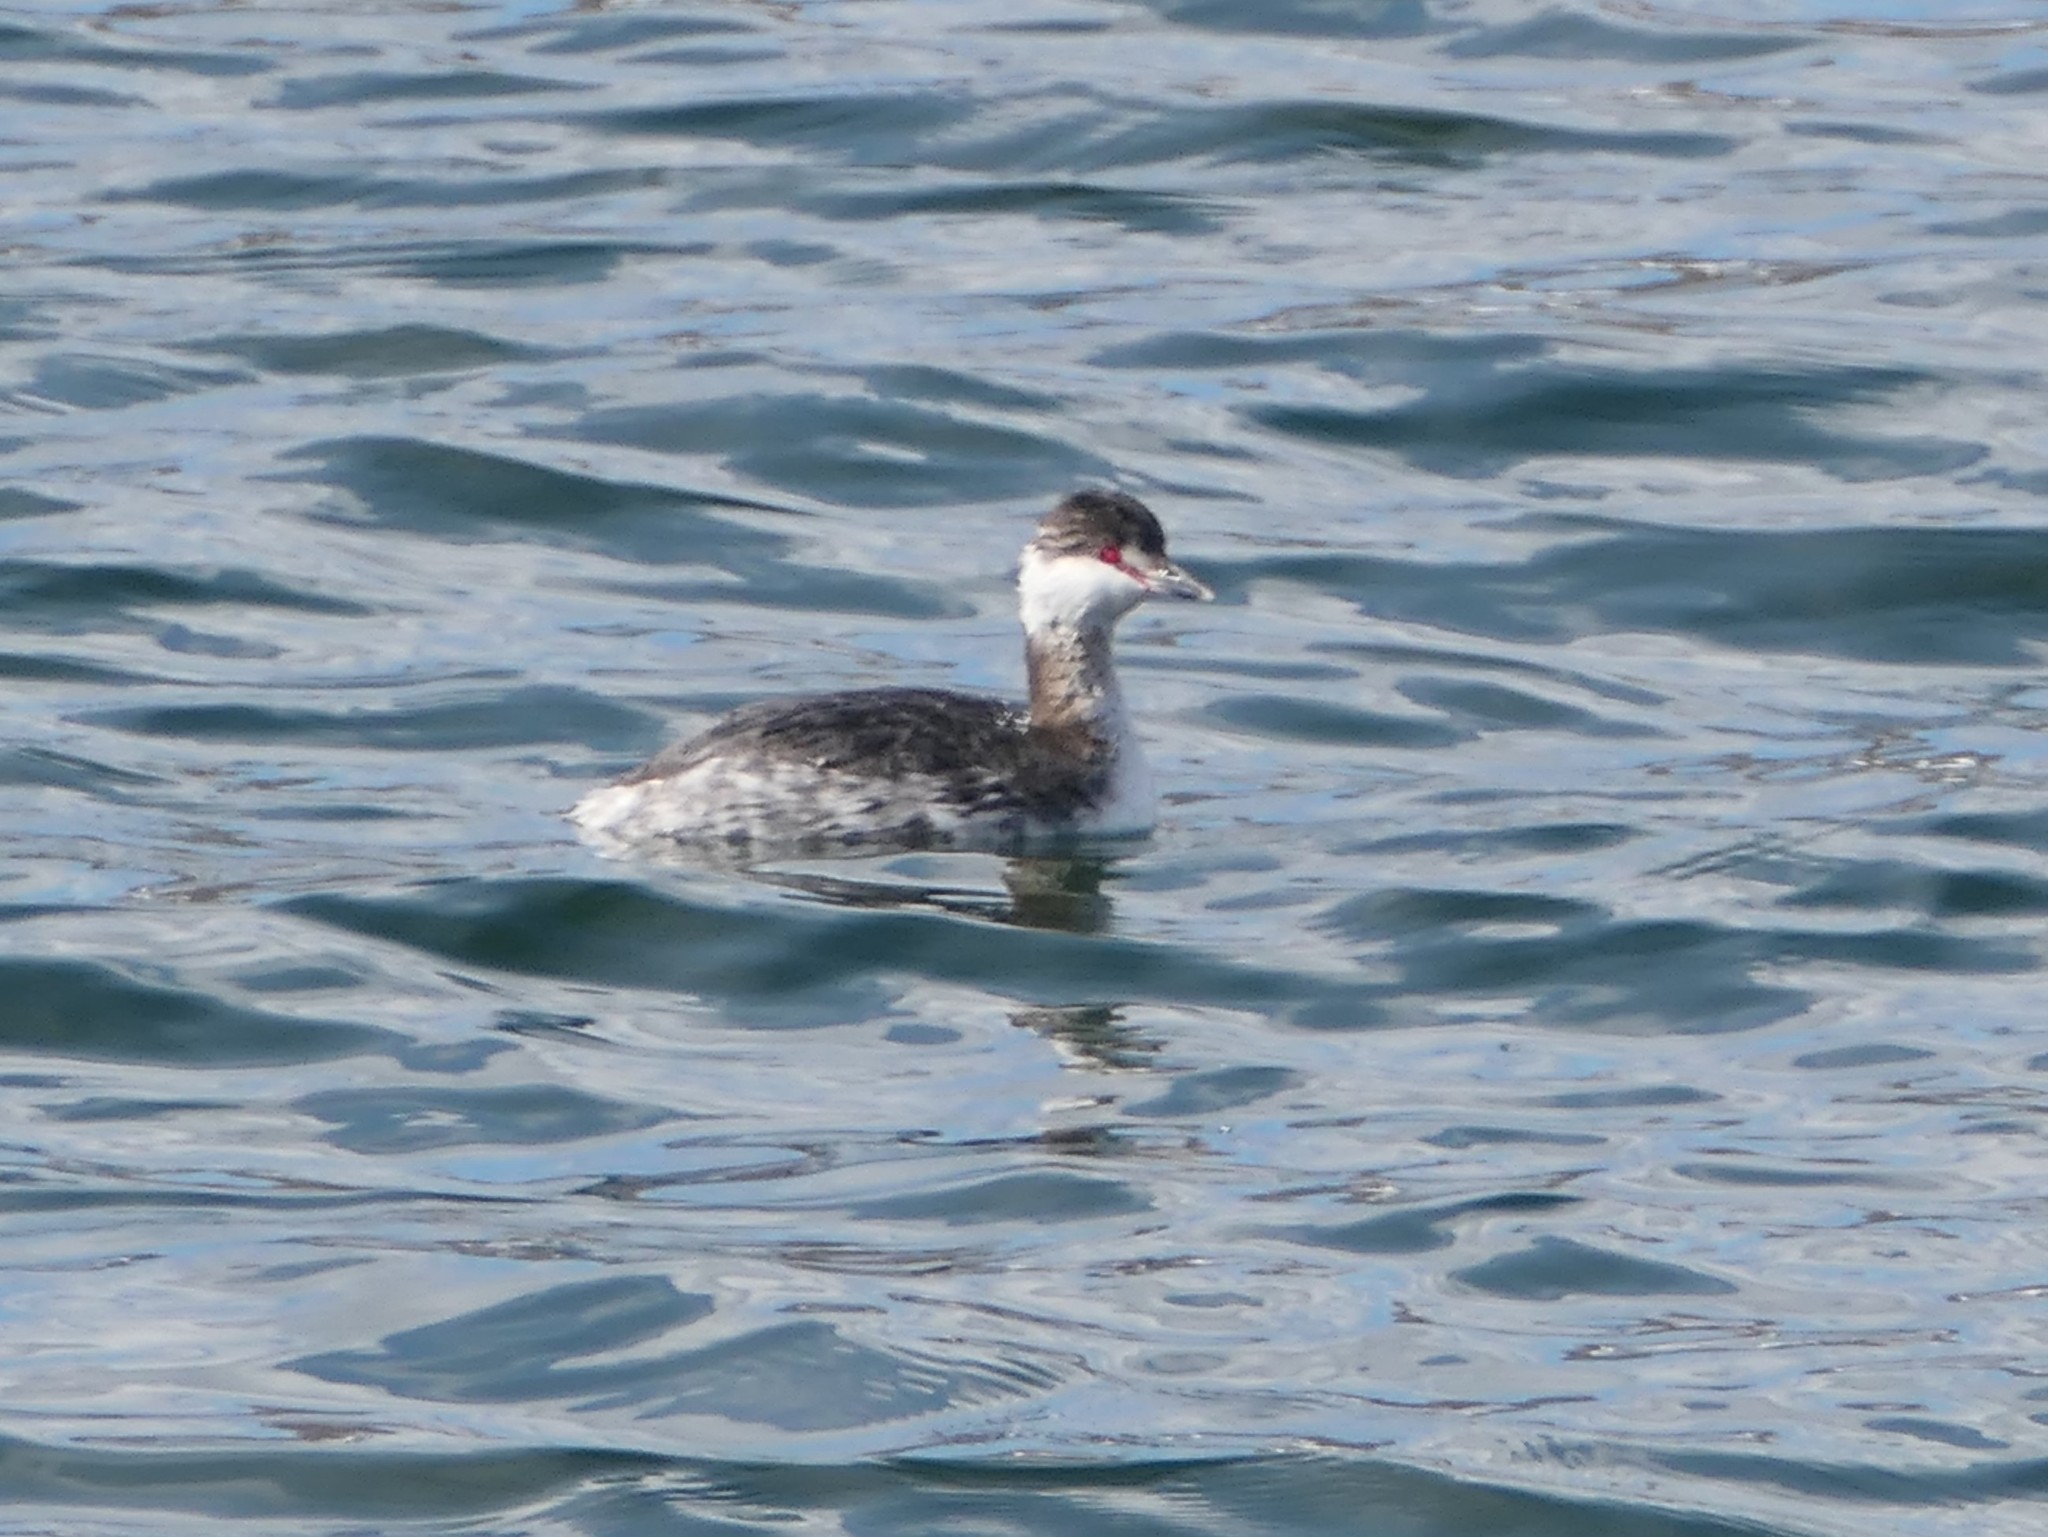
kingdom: Animalia
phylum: Chordata
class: Aves
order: Podicipediformes
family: Podicipedidae
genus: Podiceps
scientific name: Podiceps auritus
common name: Horned grebe
